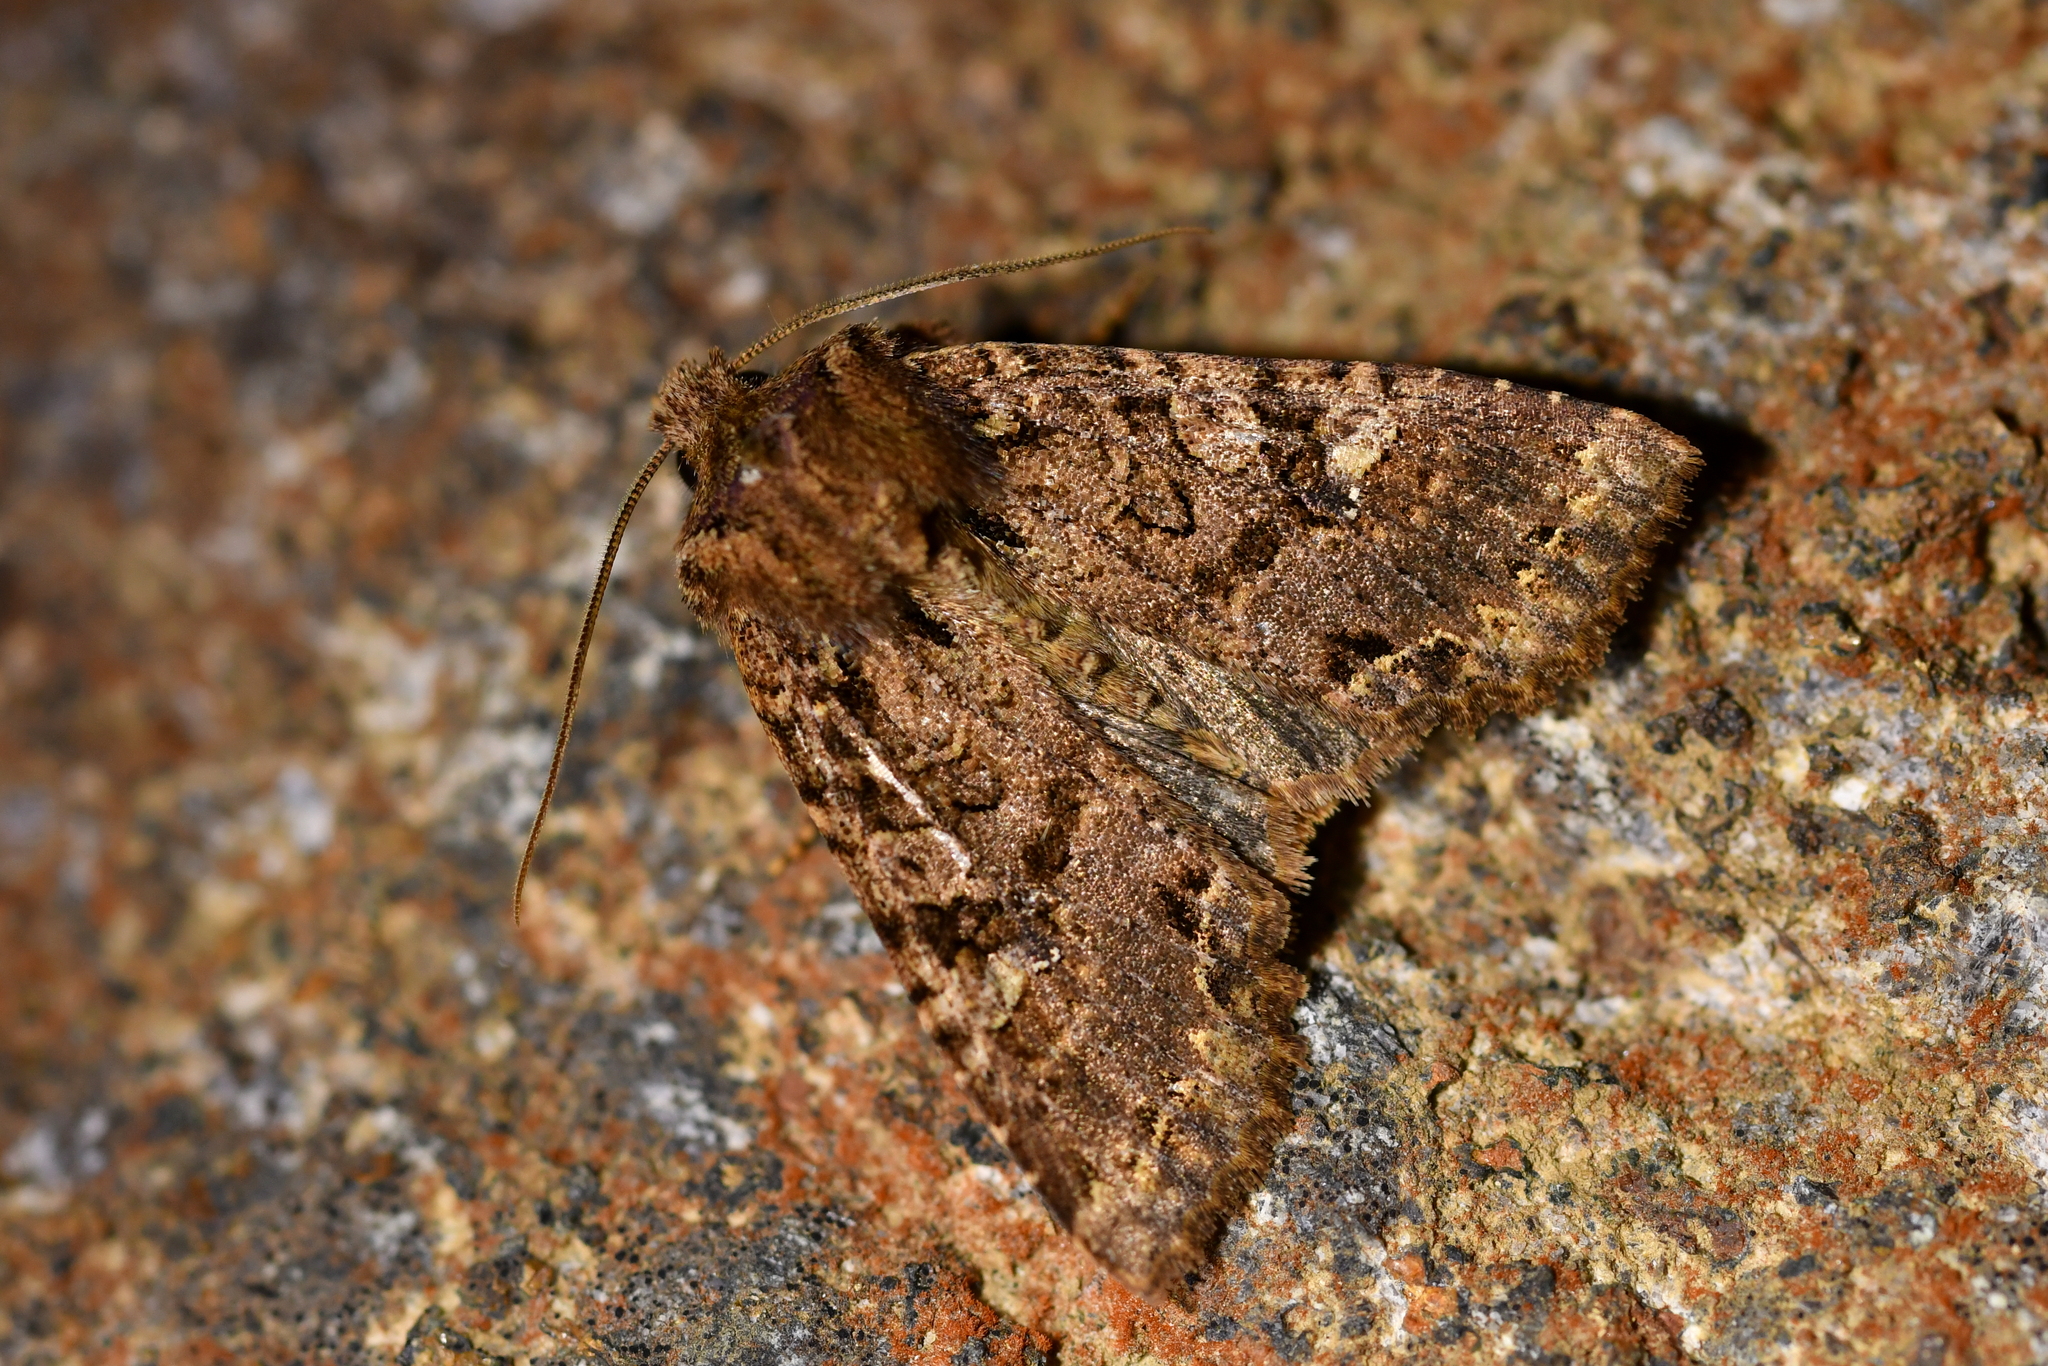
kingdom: Animalia
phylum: Arthropoda
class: Insecta
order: Lepidoptera
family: Noctuidae
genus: Meterana
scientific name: Meterana
